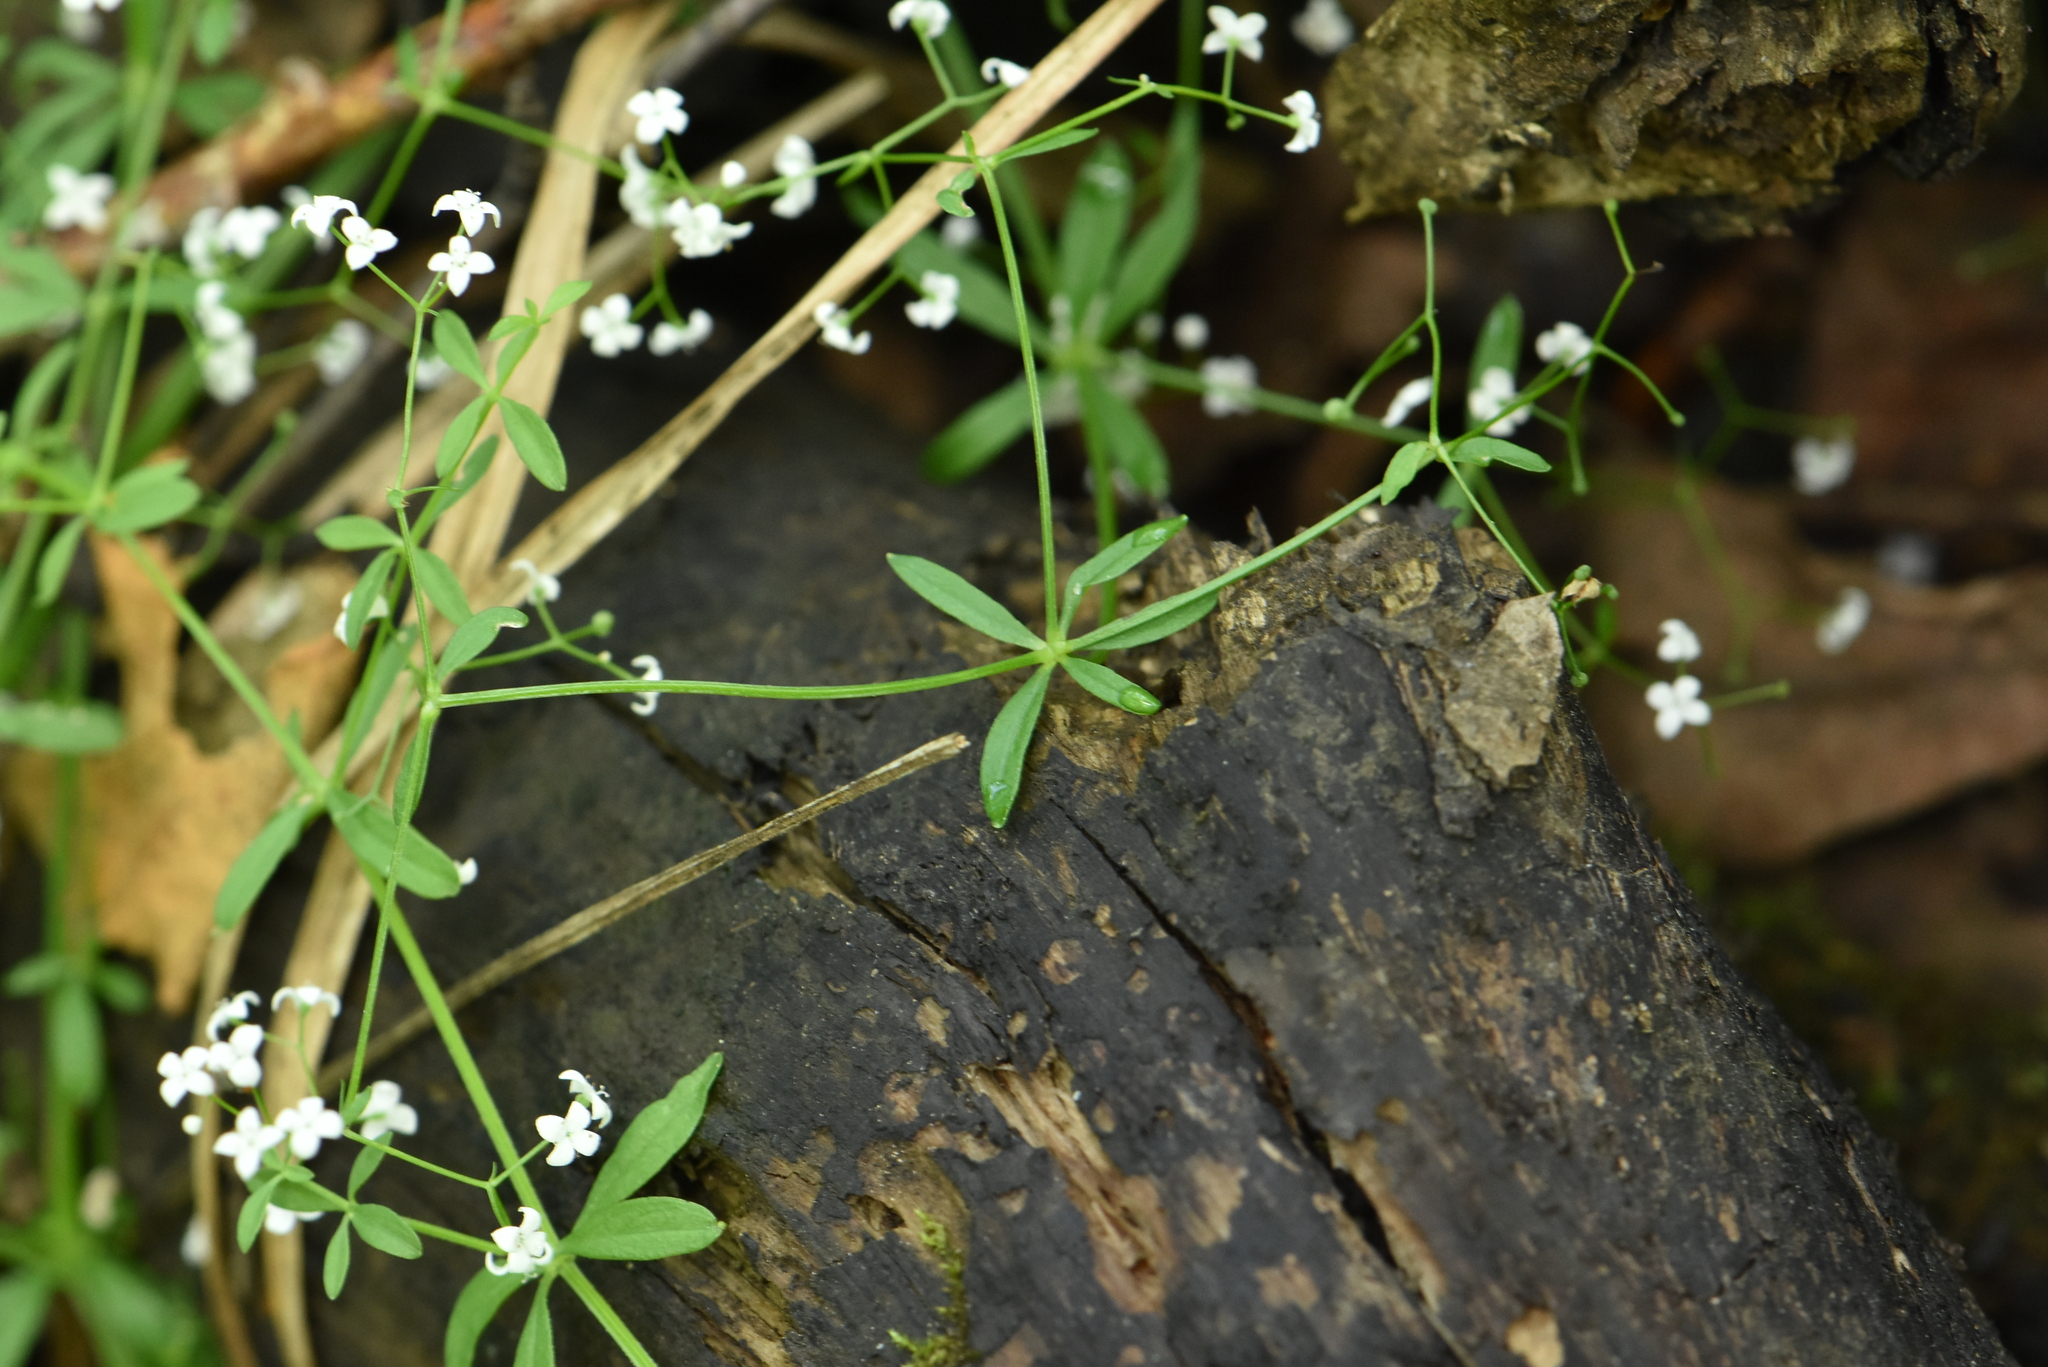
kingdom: Plantae
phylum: Tracheophyta
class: Magnoliopsida
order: Gentianales
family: Rubiaceae
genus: Galium
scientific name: Galium palustre
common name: Common marsh-bedstraw
